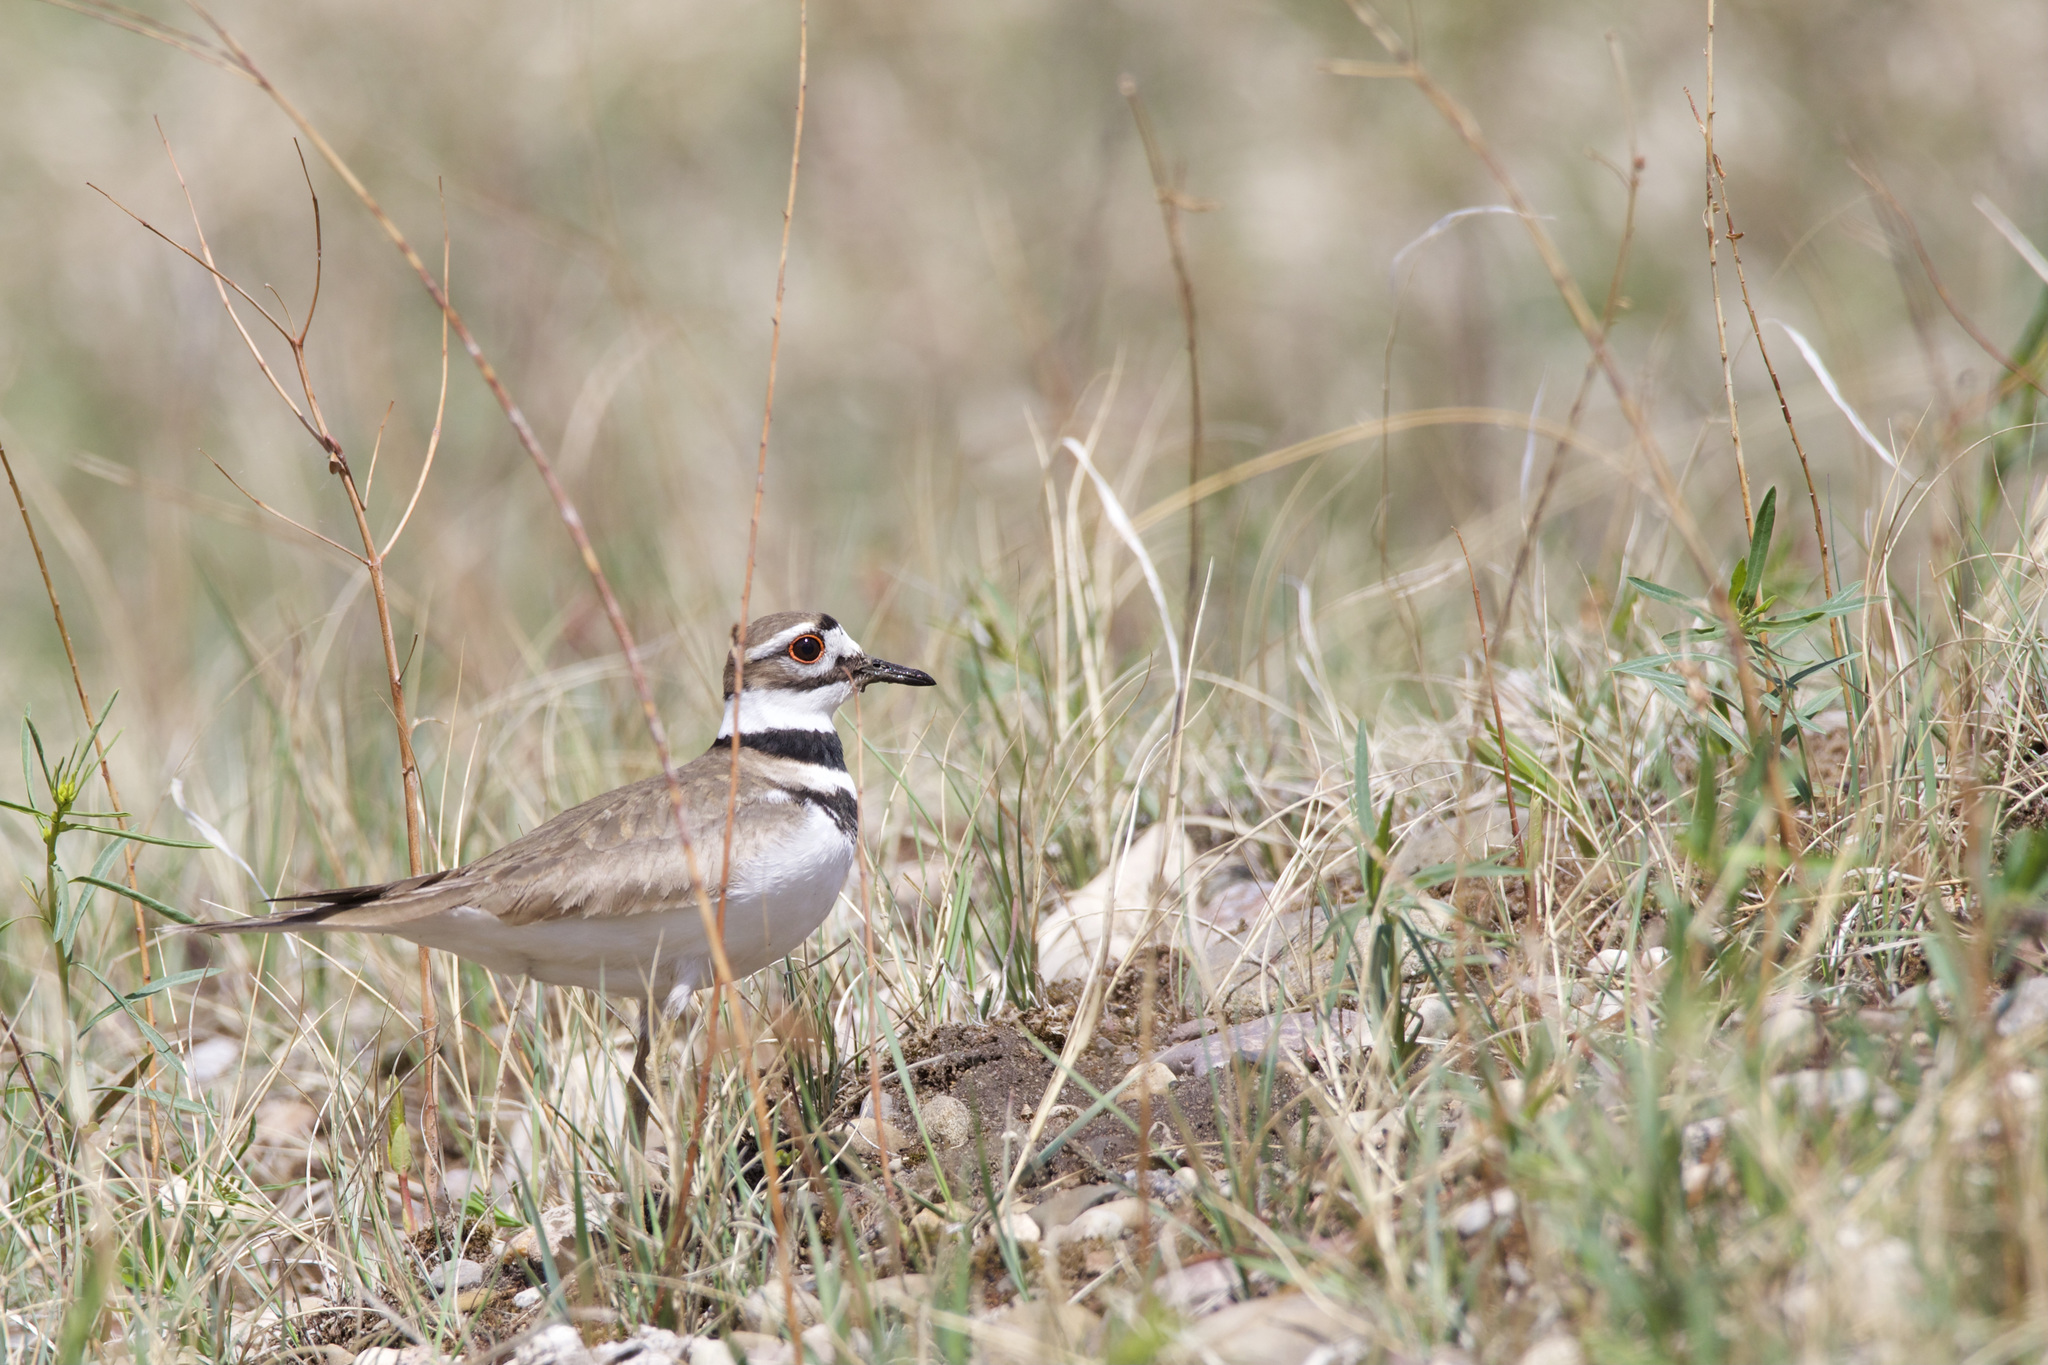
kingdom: Animalia
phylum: Chordata
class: Aves
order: Charadriiformes
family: Charadriidae
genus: Charadrius
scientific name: Charadrius vociferus
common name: Killdeer
